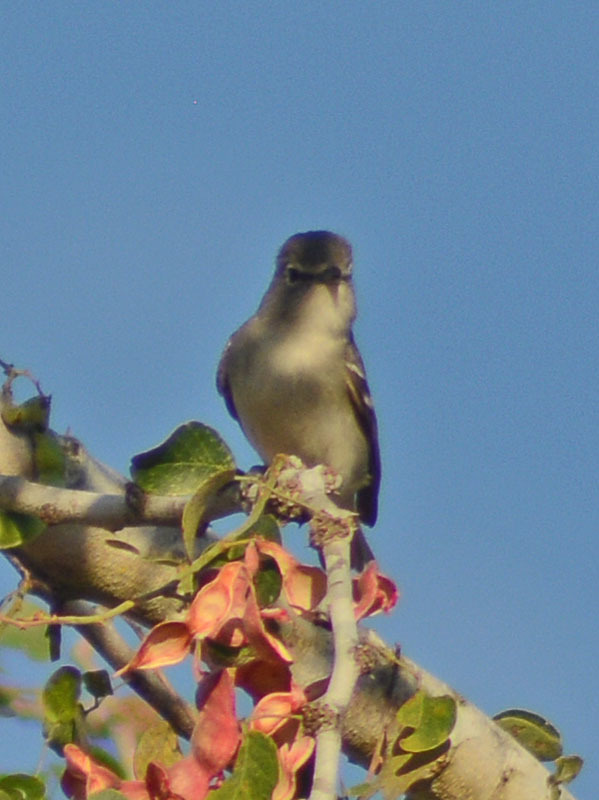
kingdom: Animalia
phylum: Chordata
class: Aves
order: Passeriformes
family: Vireonidae
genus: Vireo
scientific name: Vireo plumbeus
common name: Plumbeous vireo
